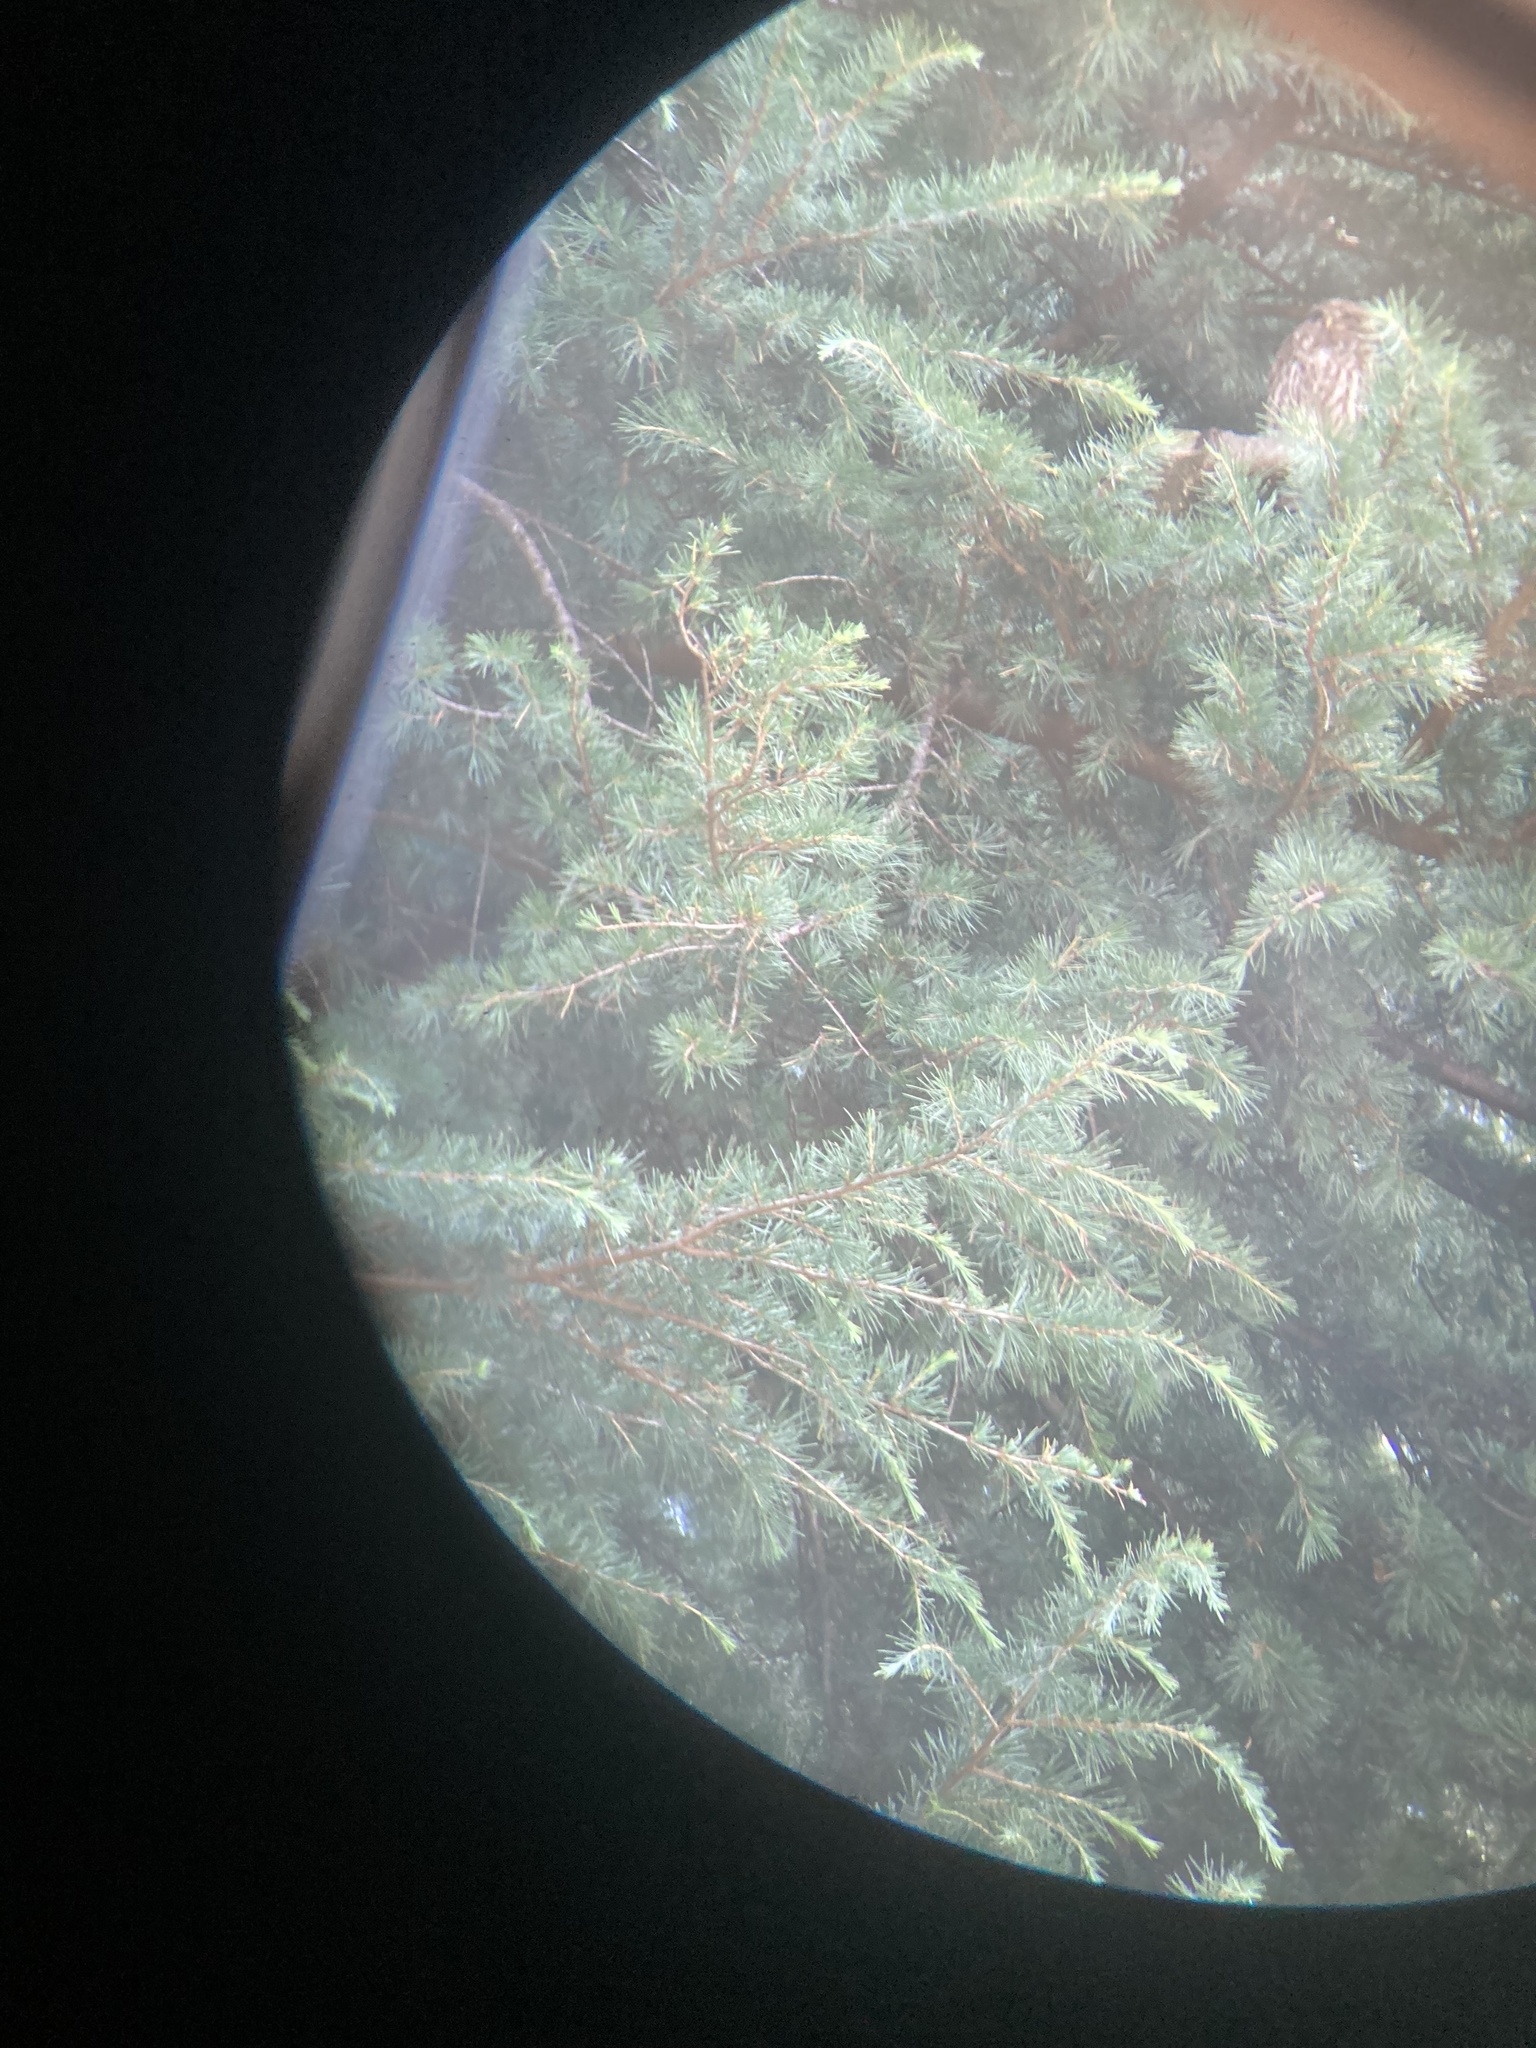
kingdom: Animalia
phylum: Chordata
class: Aves
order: Strigiformes
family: Strigidae
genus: Athene
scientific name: Athene noctua
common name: Little owl
